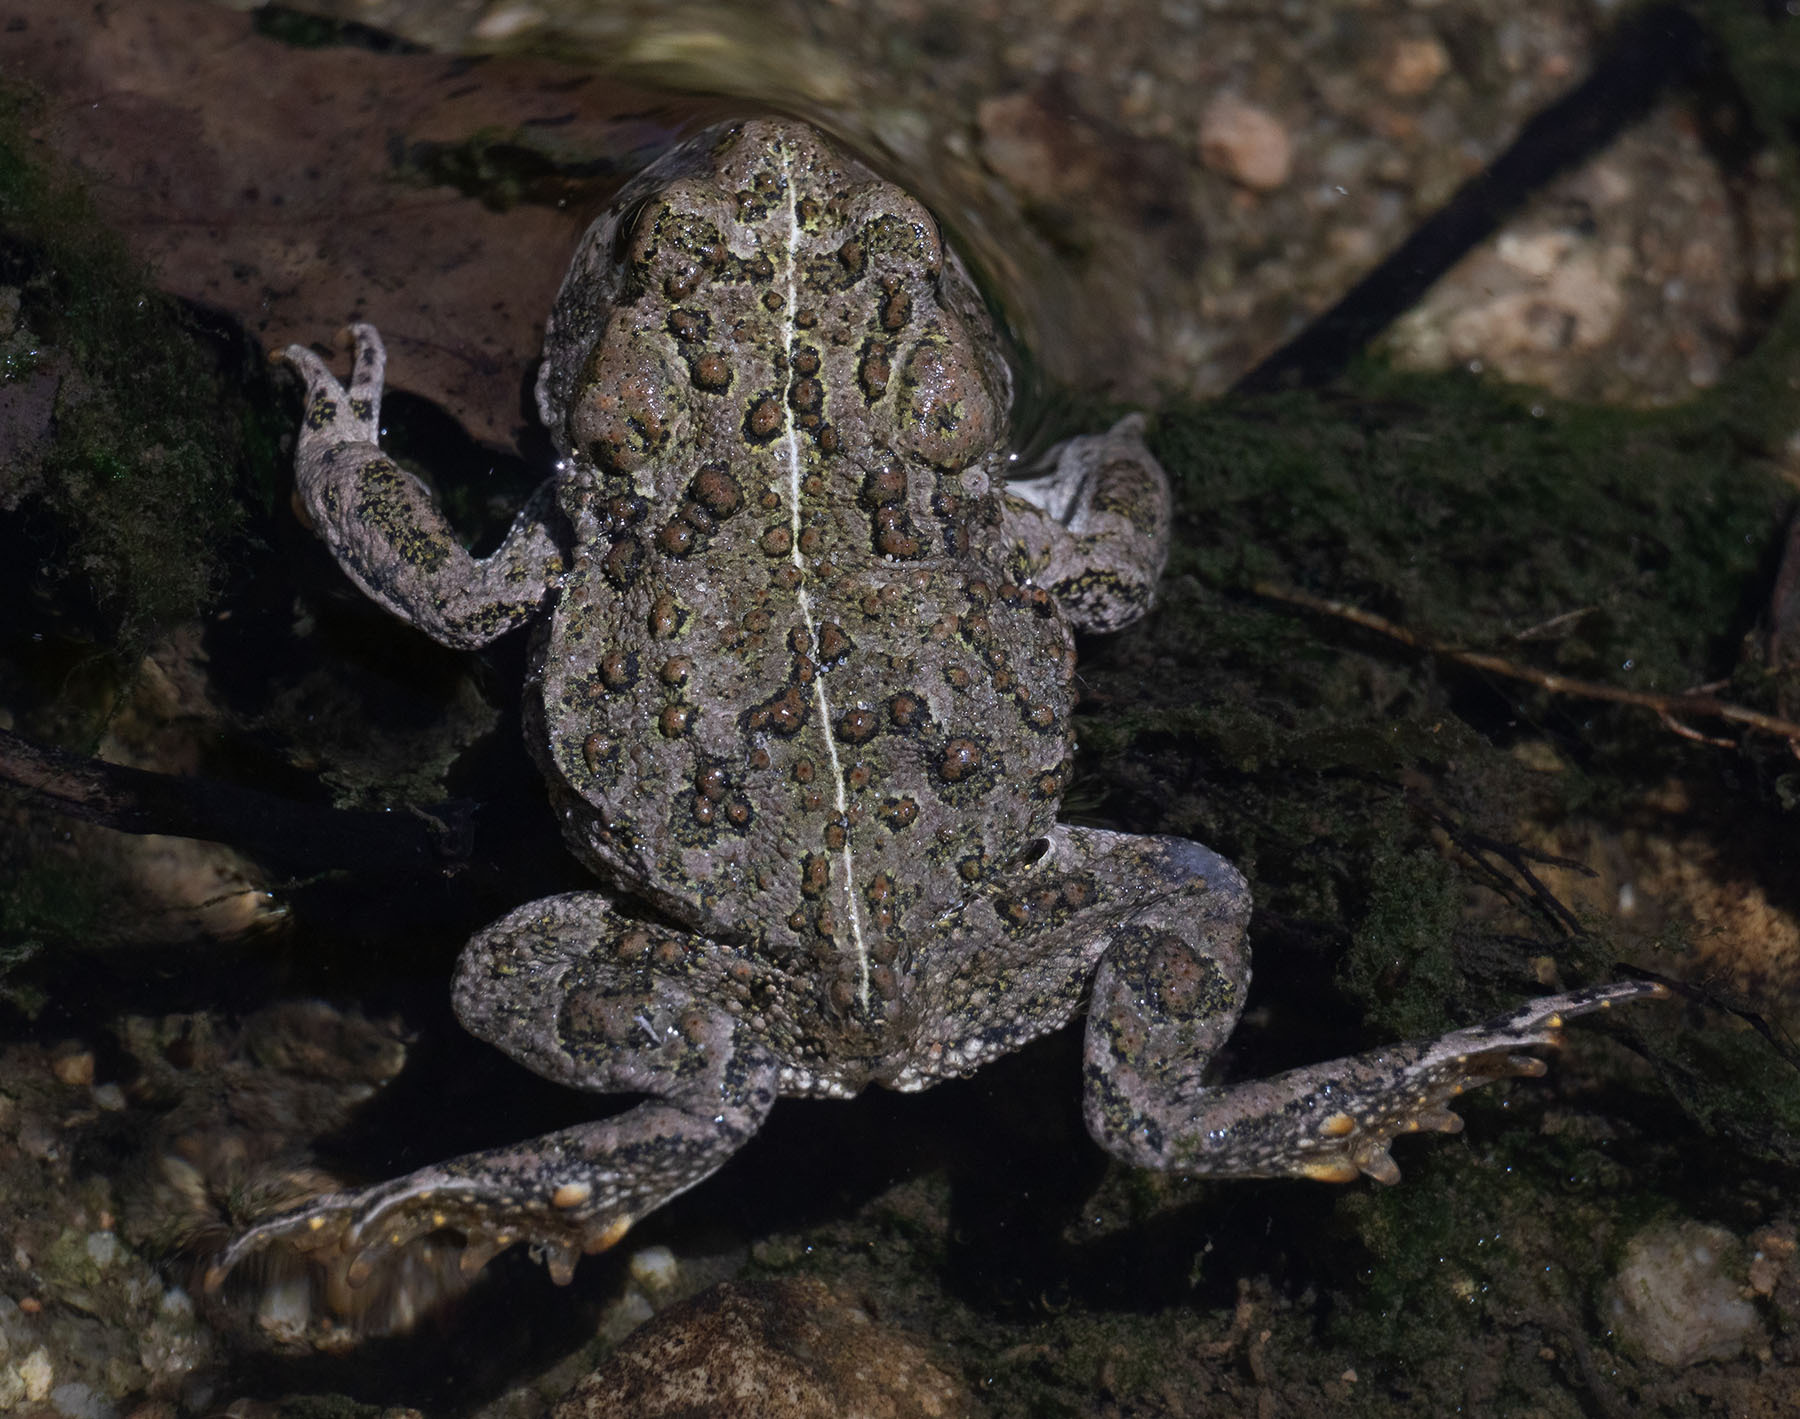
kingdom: Animalia
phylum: Chordata
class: Amphibia
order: Anura
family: Bufonidae
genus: Anaxyrus
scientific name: Anaxyrus boreas
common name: Western toad
